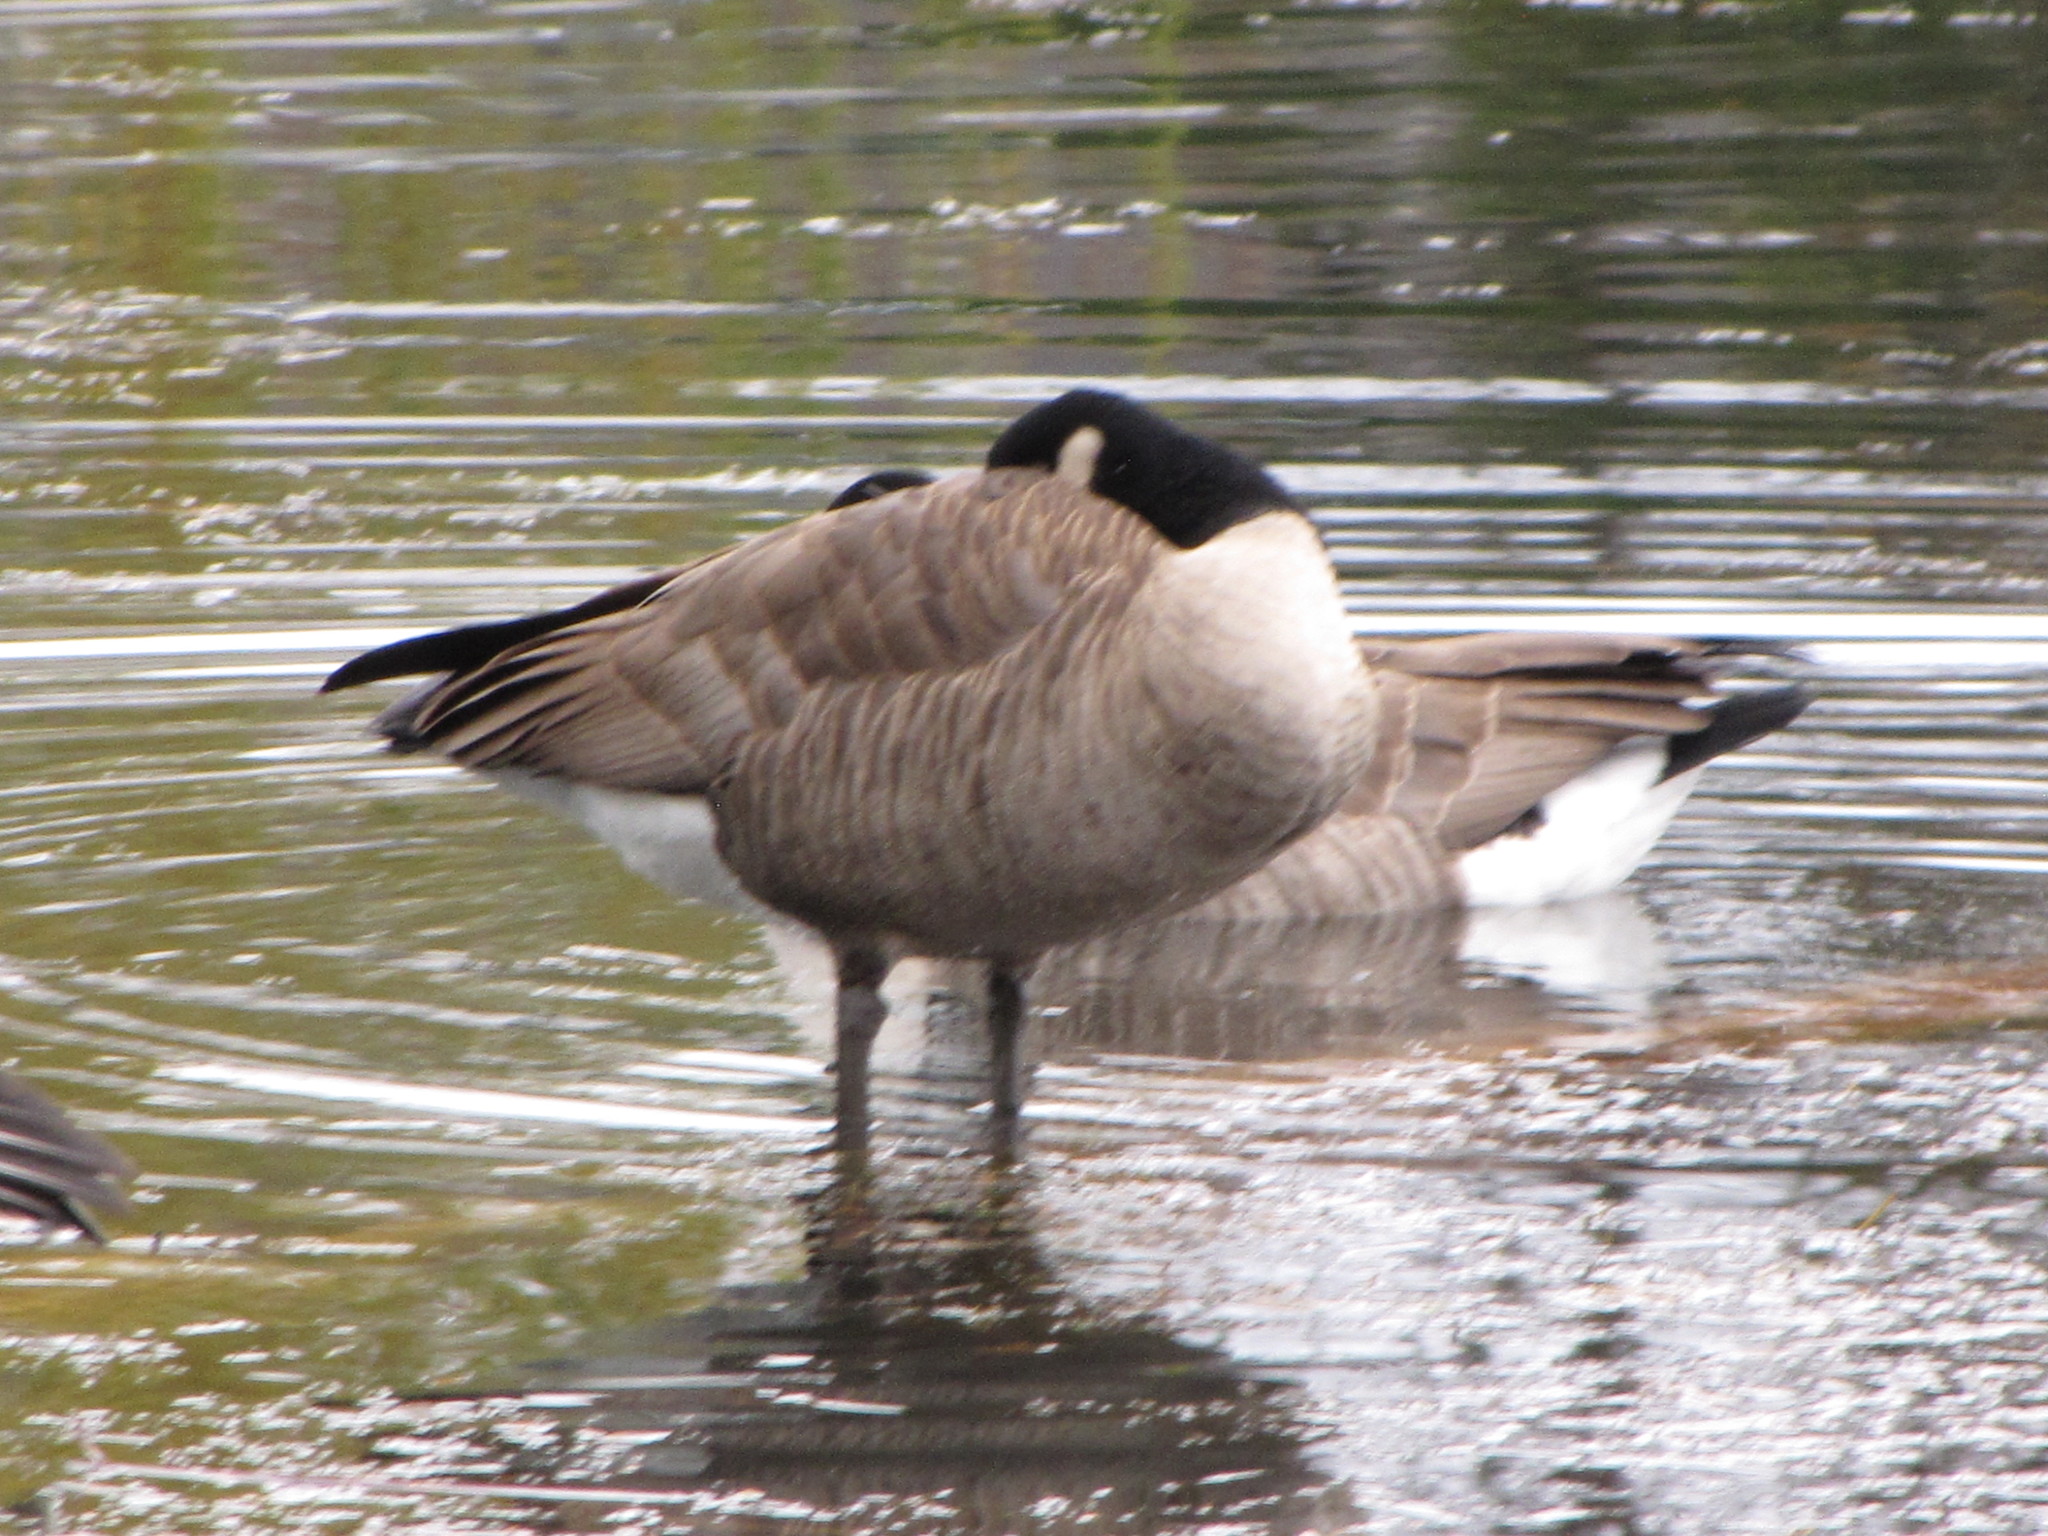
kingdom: Animalia
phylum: Chordata
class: Aves
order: Anseriformes
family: Anatidae
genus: Branta
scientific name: Branta canadensis
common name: Canada goose
